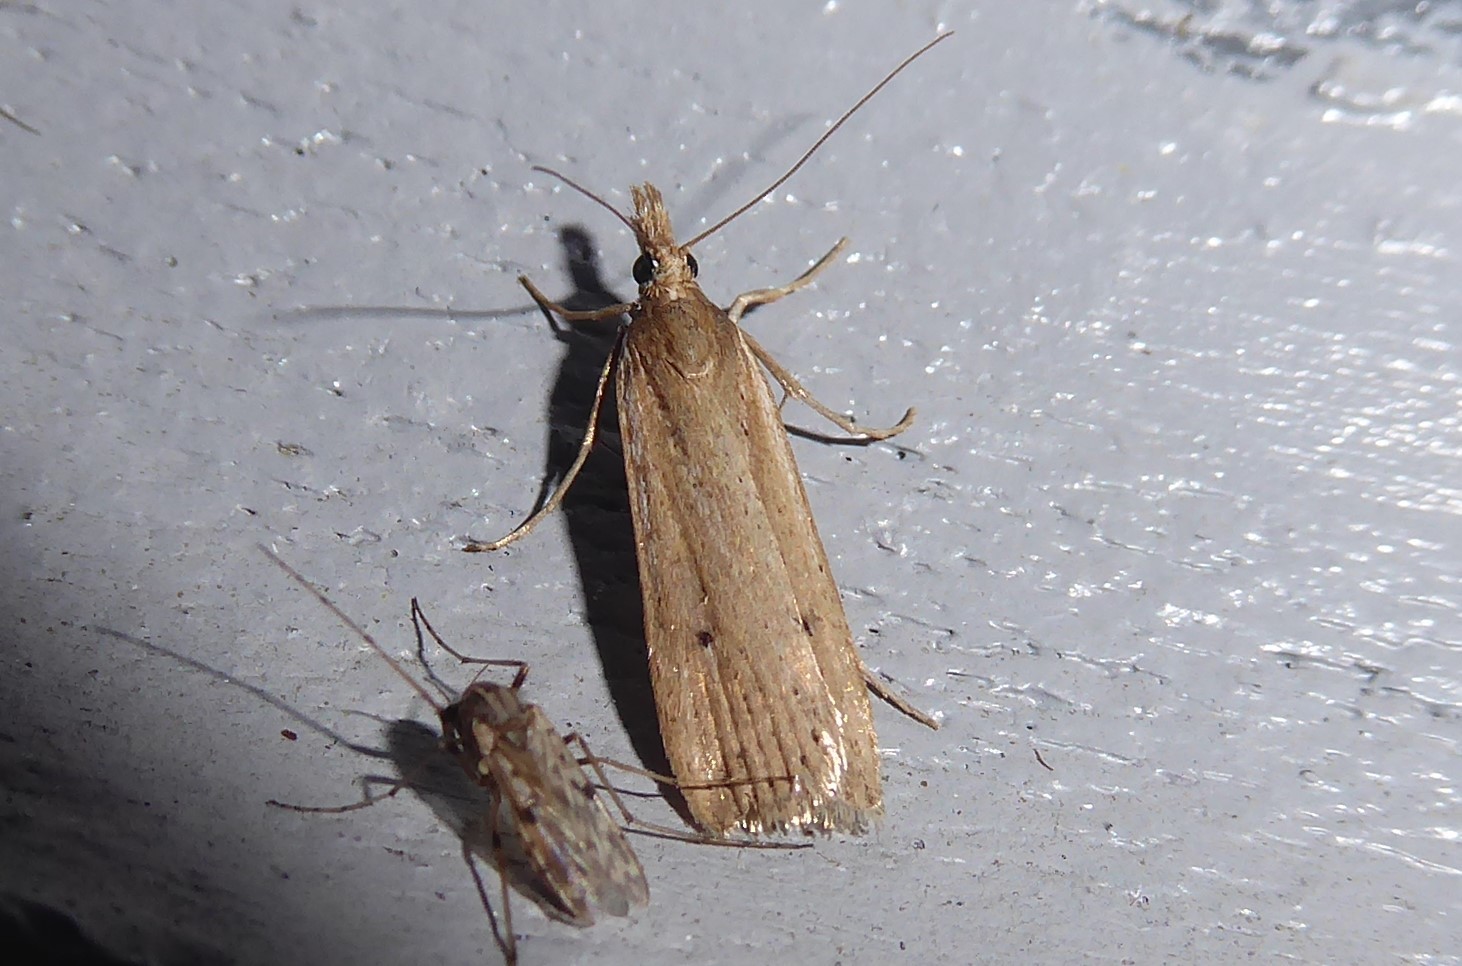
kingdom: Animalia
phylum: Arthropoda
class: Insecta
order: Lepidoptera
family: Crambidae
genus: Eudonia
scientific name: Eudonia sabulosella
